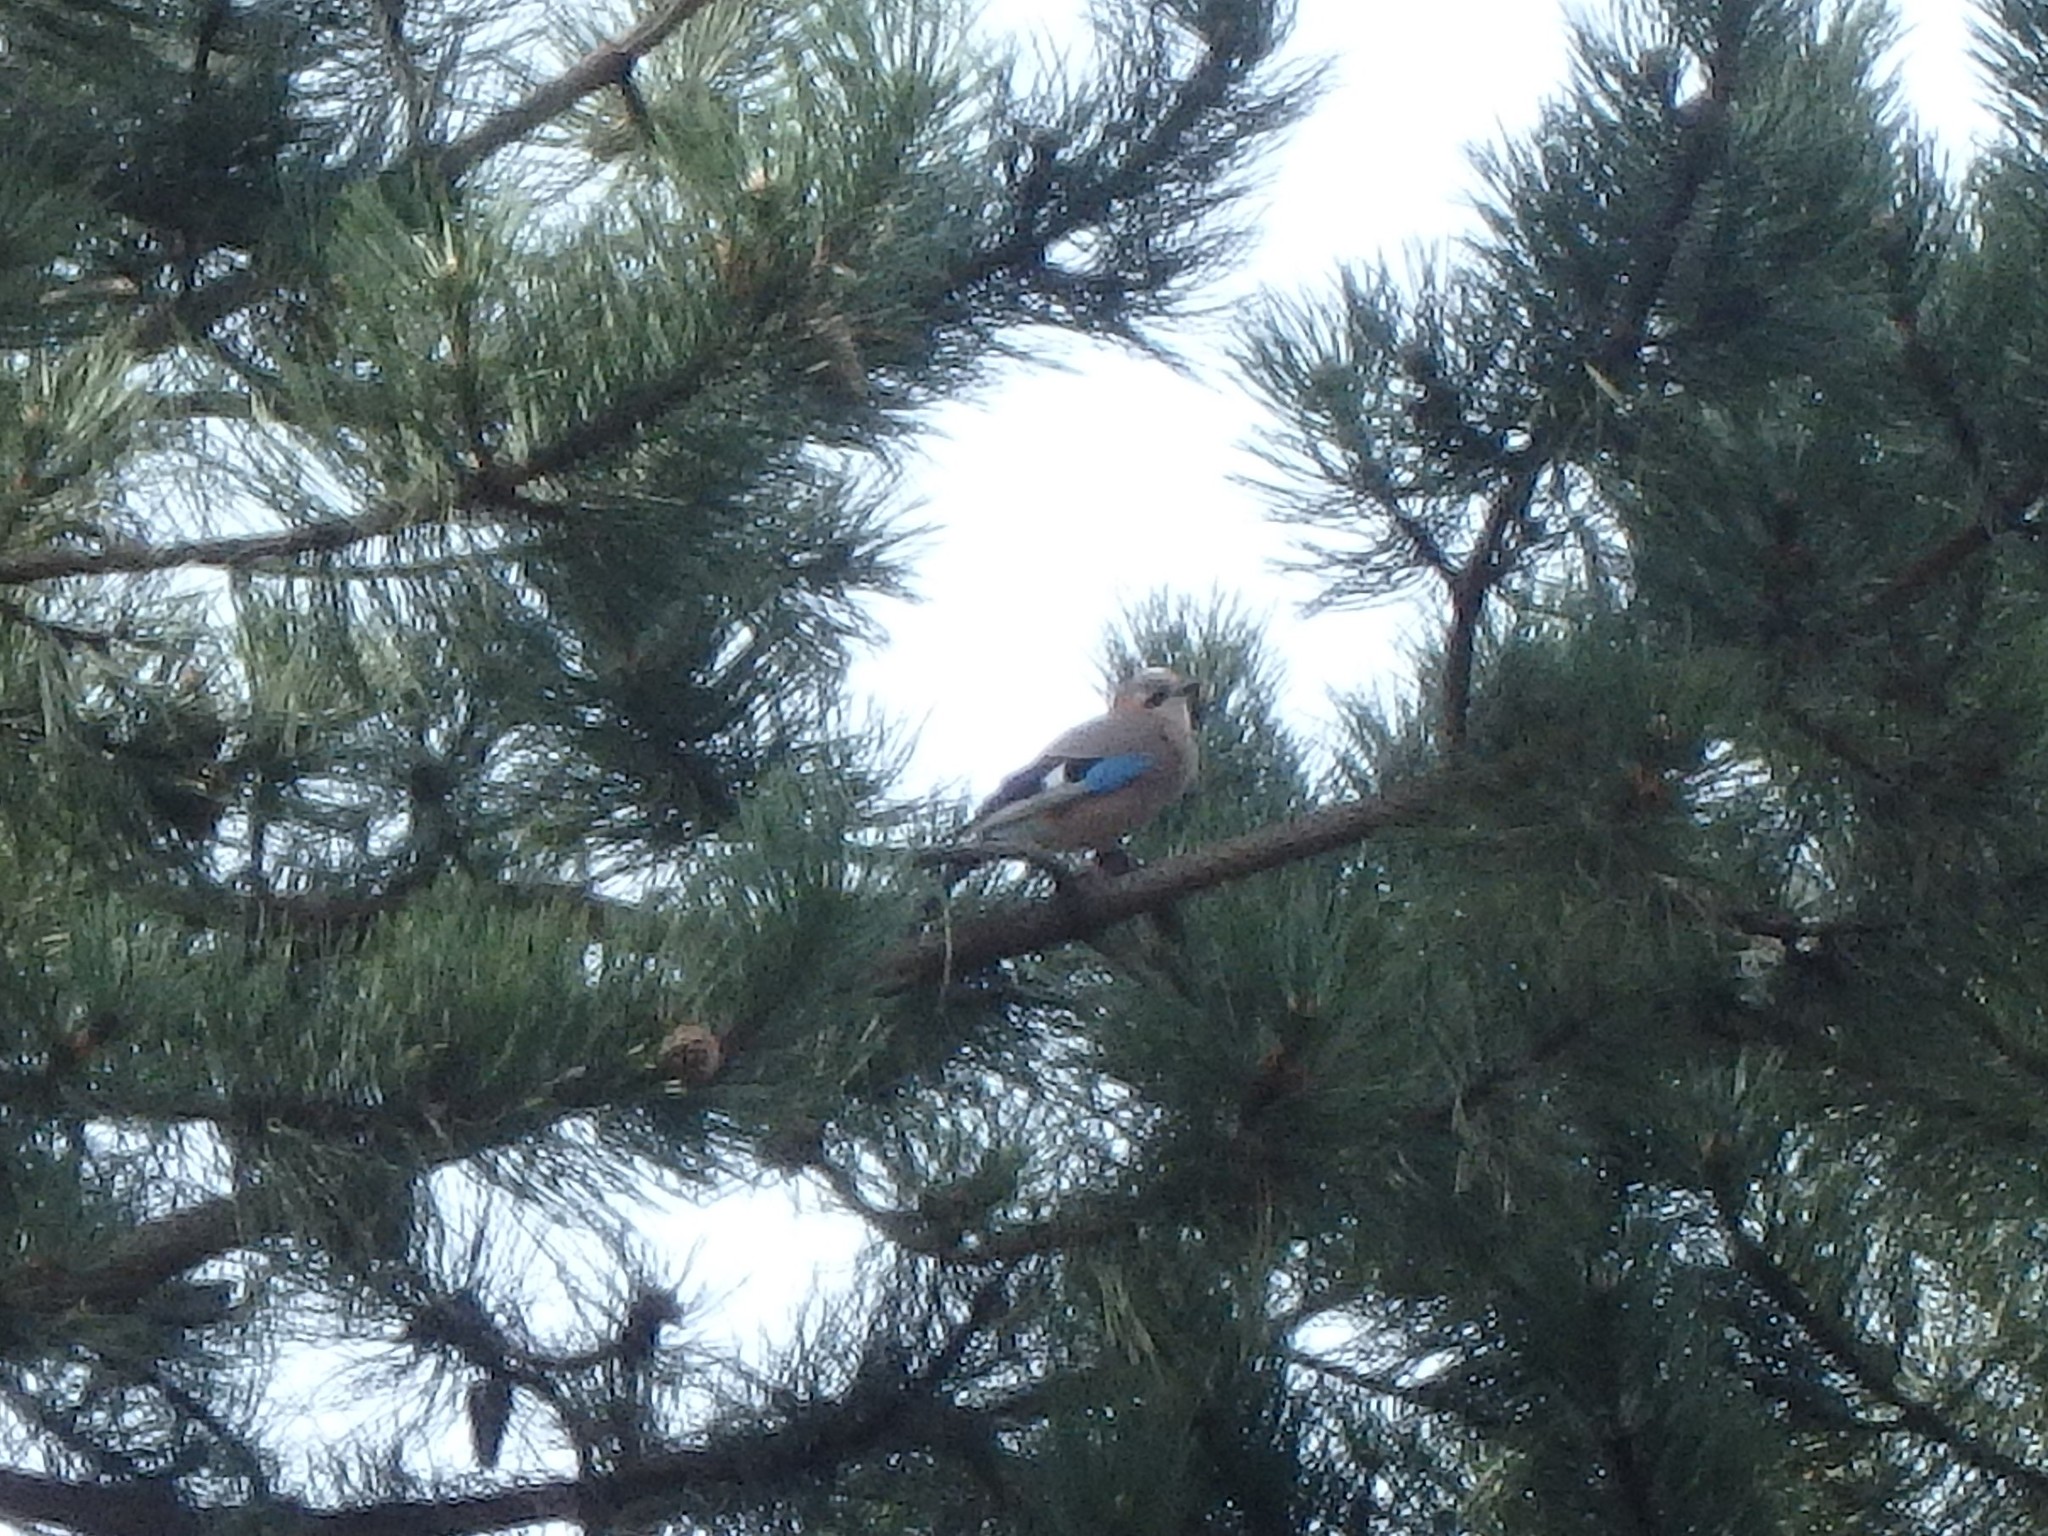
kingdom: Animalia
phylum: Chordata
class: Aves
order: Passeriformes
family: Corvidae
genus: Garrulus
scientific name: Garrulus glandarius
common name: Eurasian jay
